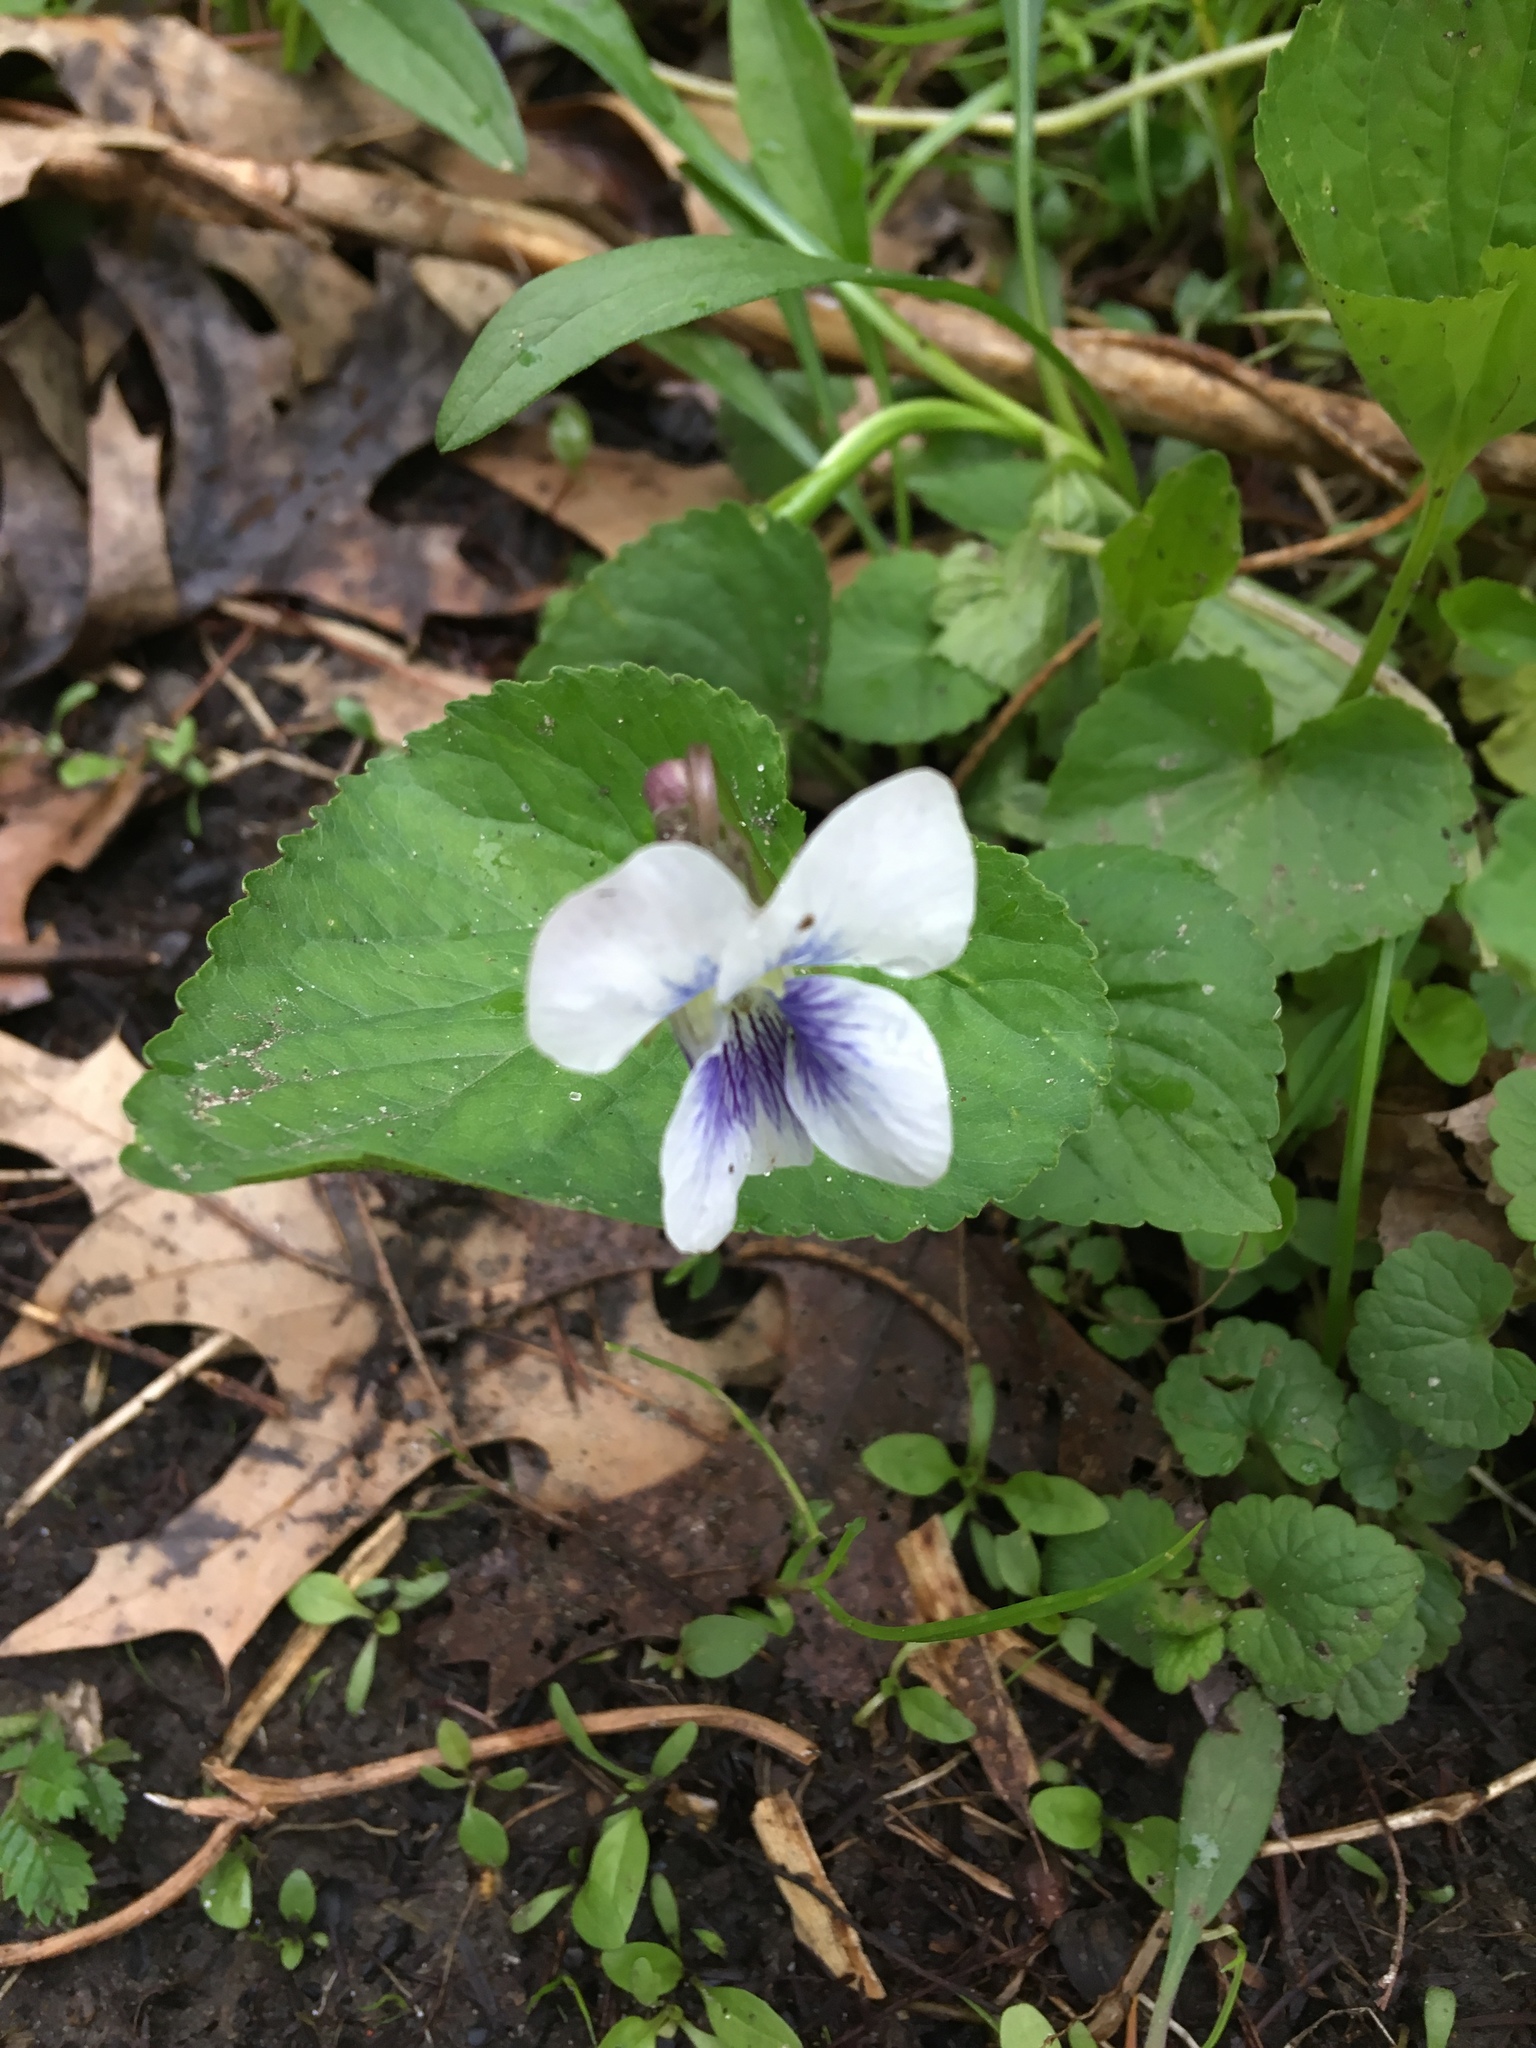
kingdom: Plantae
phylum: Tracheophyta
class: Magnoliopsida
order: Malpighiales
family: Violaceae
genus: Viola
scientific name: Viola sororia
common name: Dooryard violet
